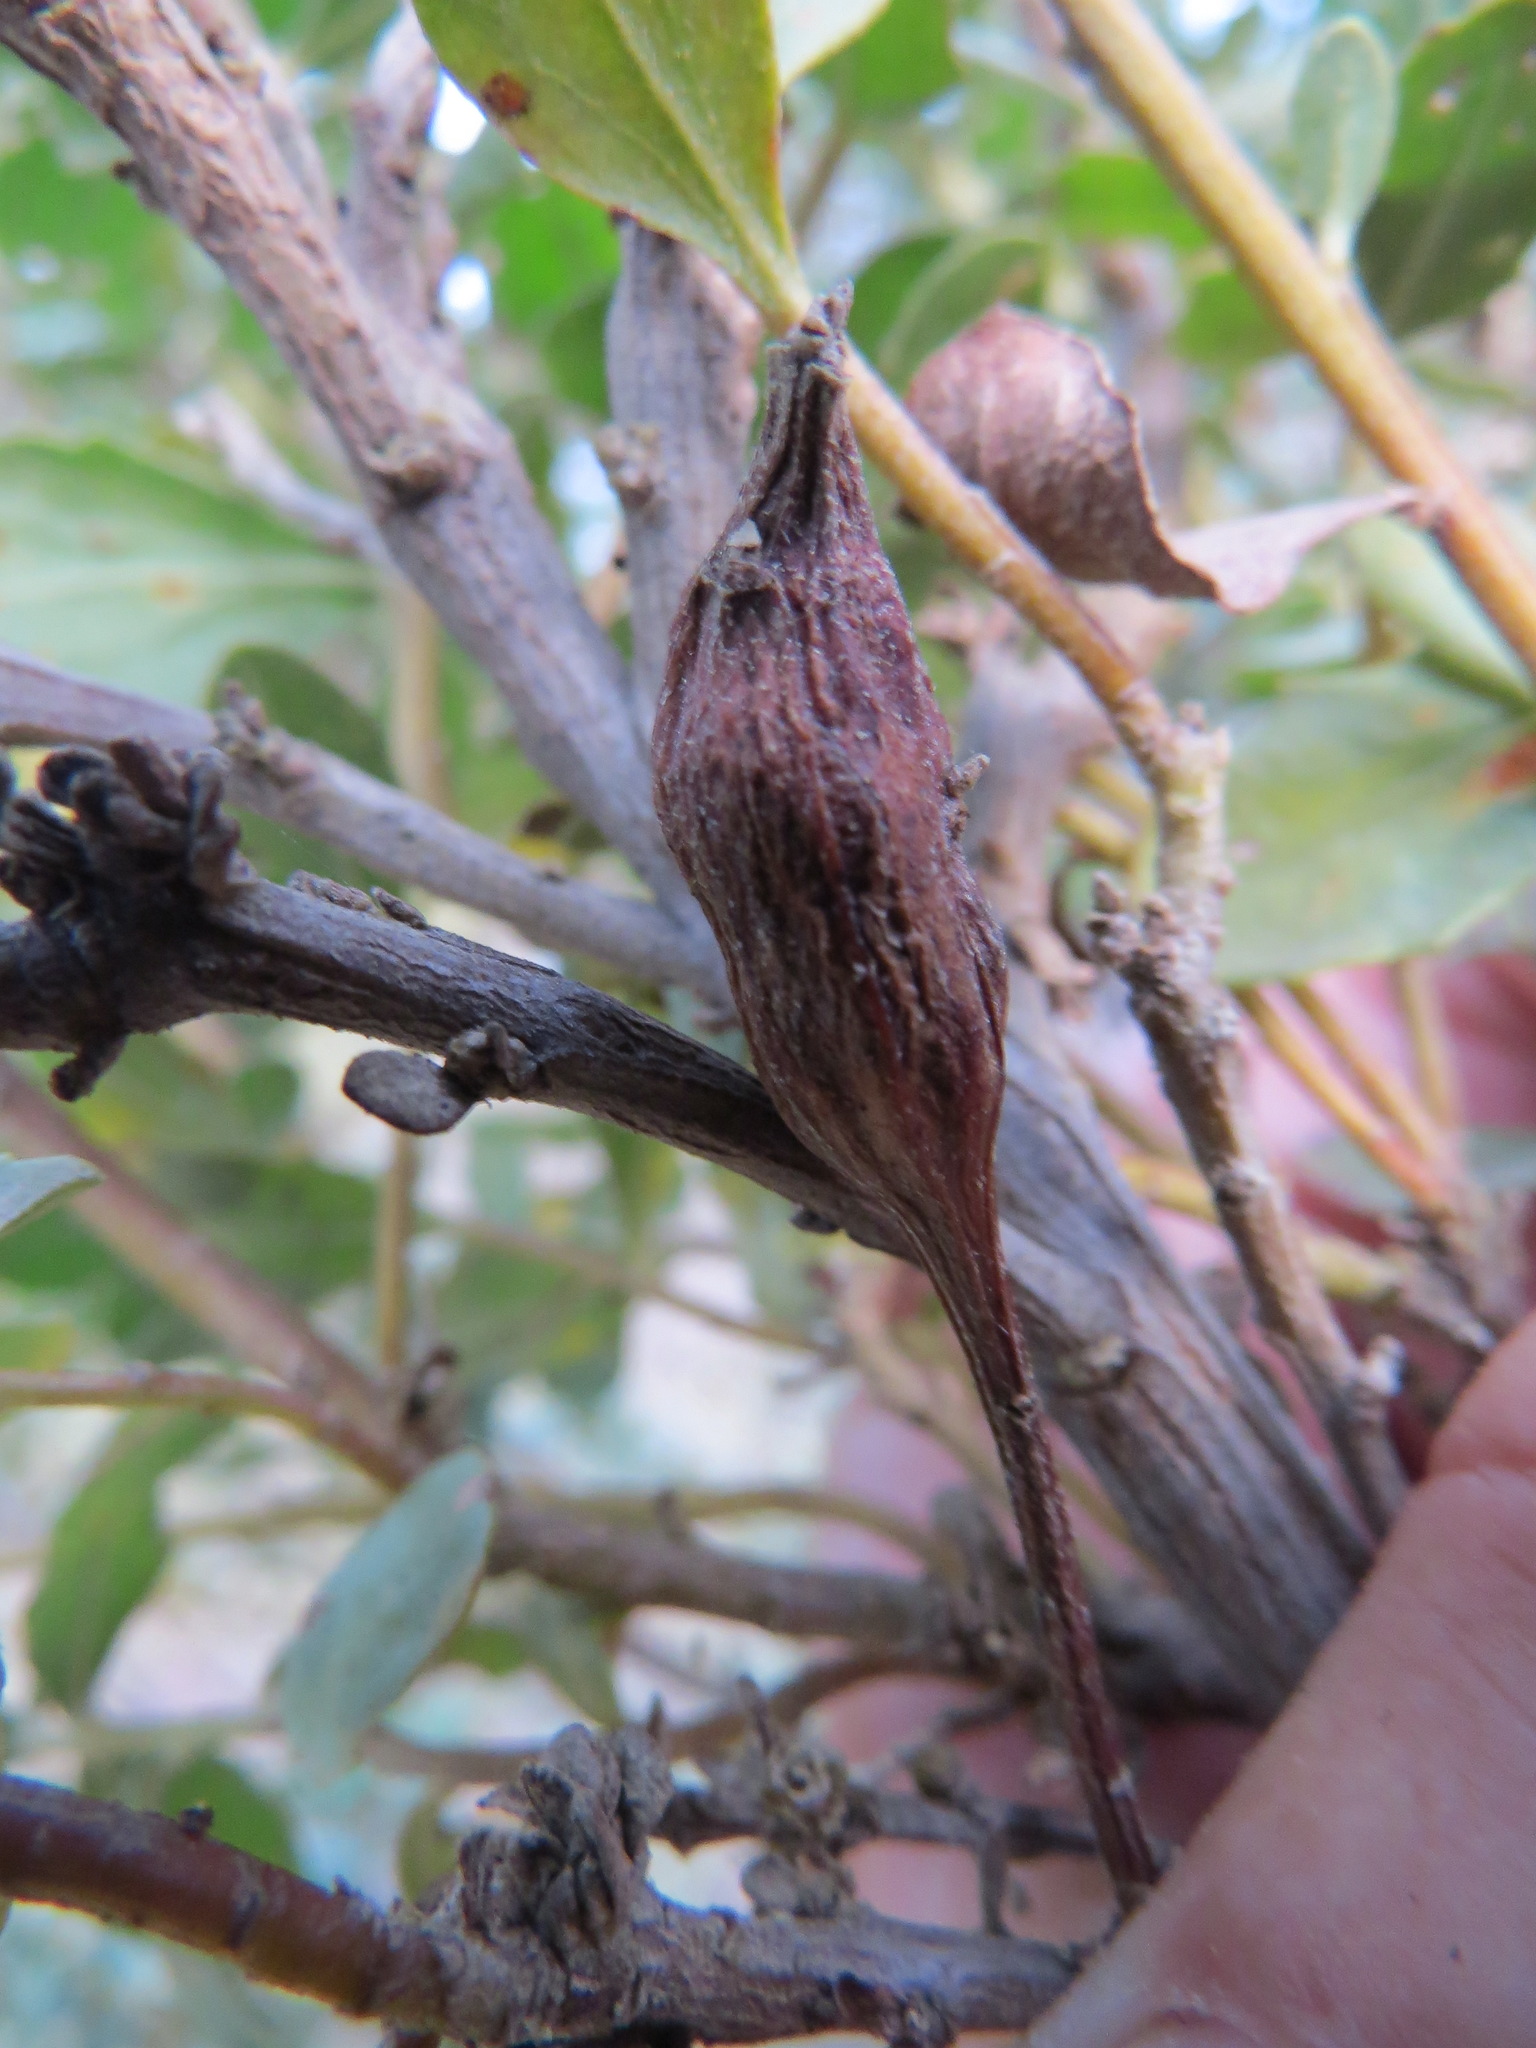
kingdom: Animalia
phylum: Arthropoda
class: Insecta
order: Lepidoptera
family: Gelechiidae
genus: Gnorimoschema
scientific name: Gnorimoschema baccharisella
